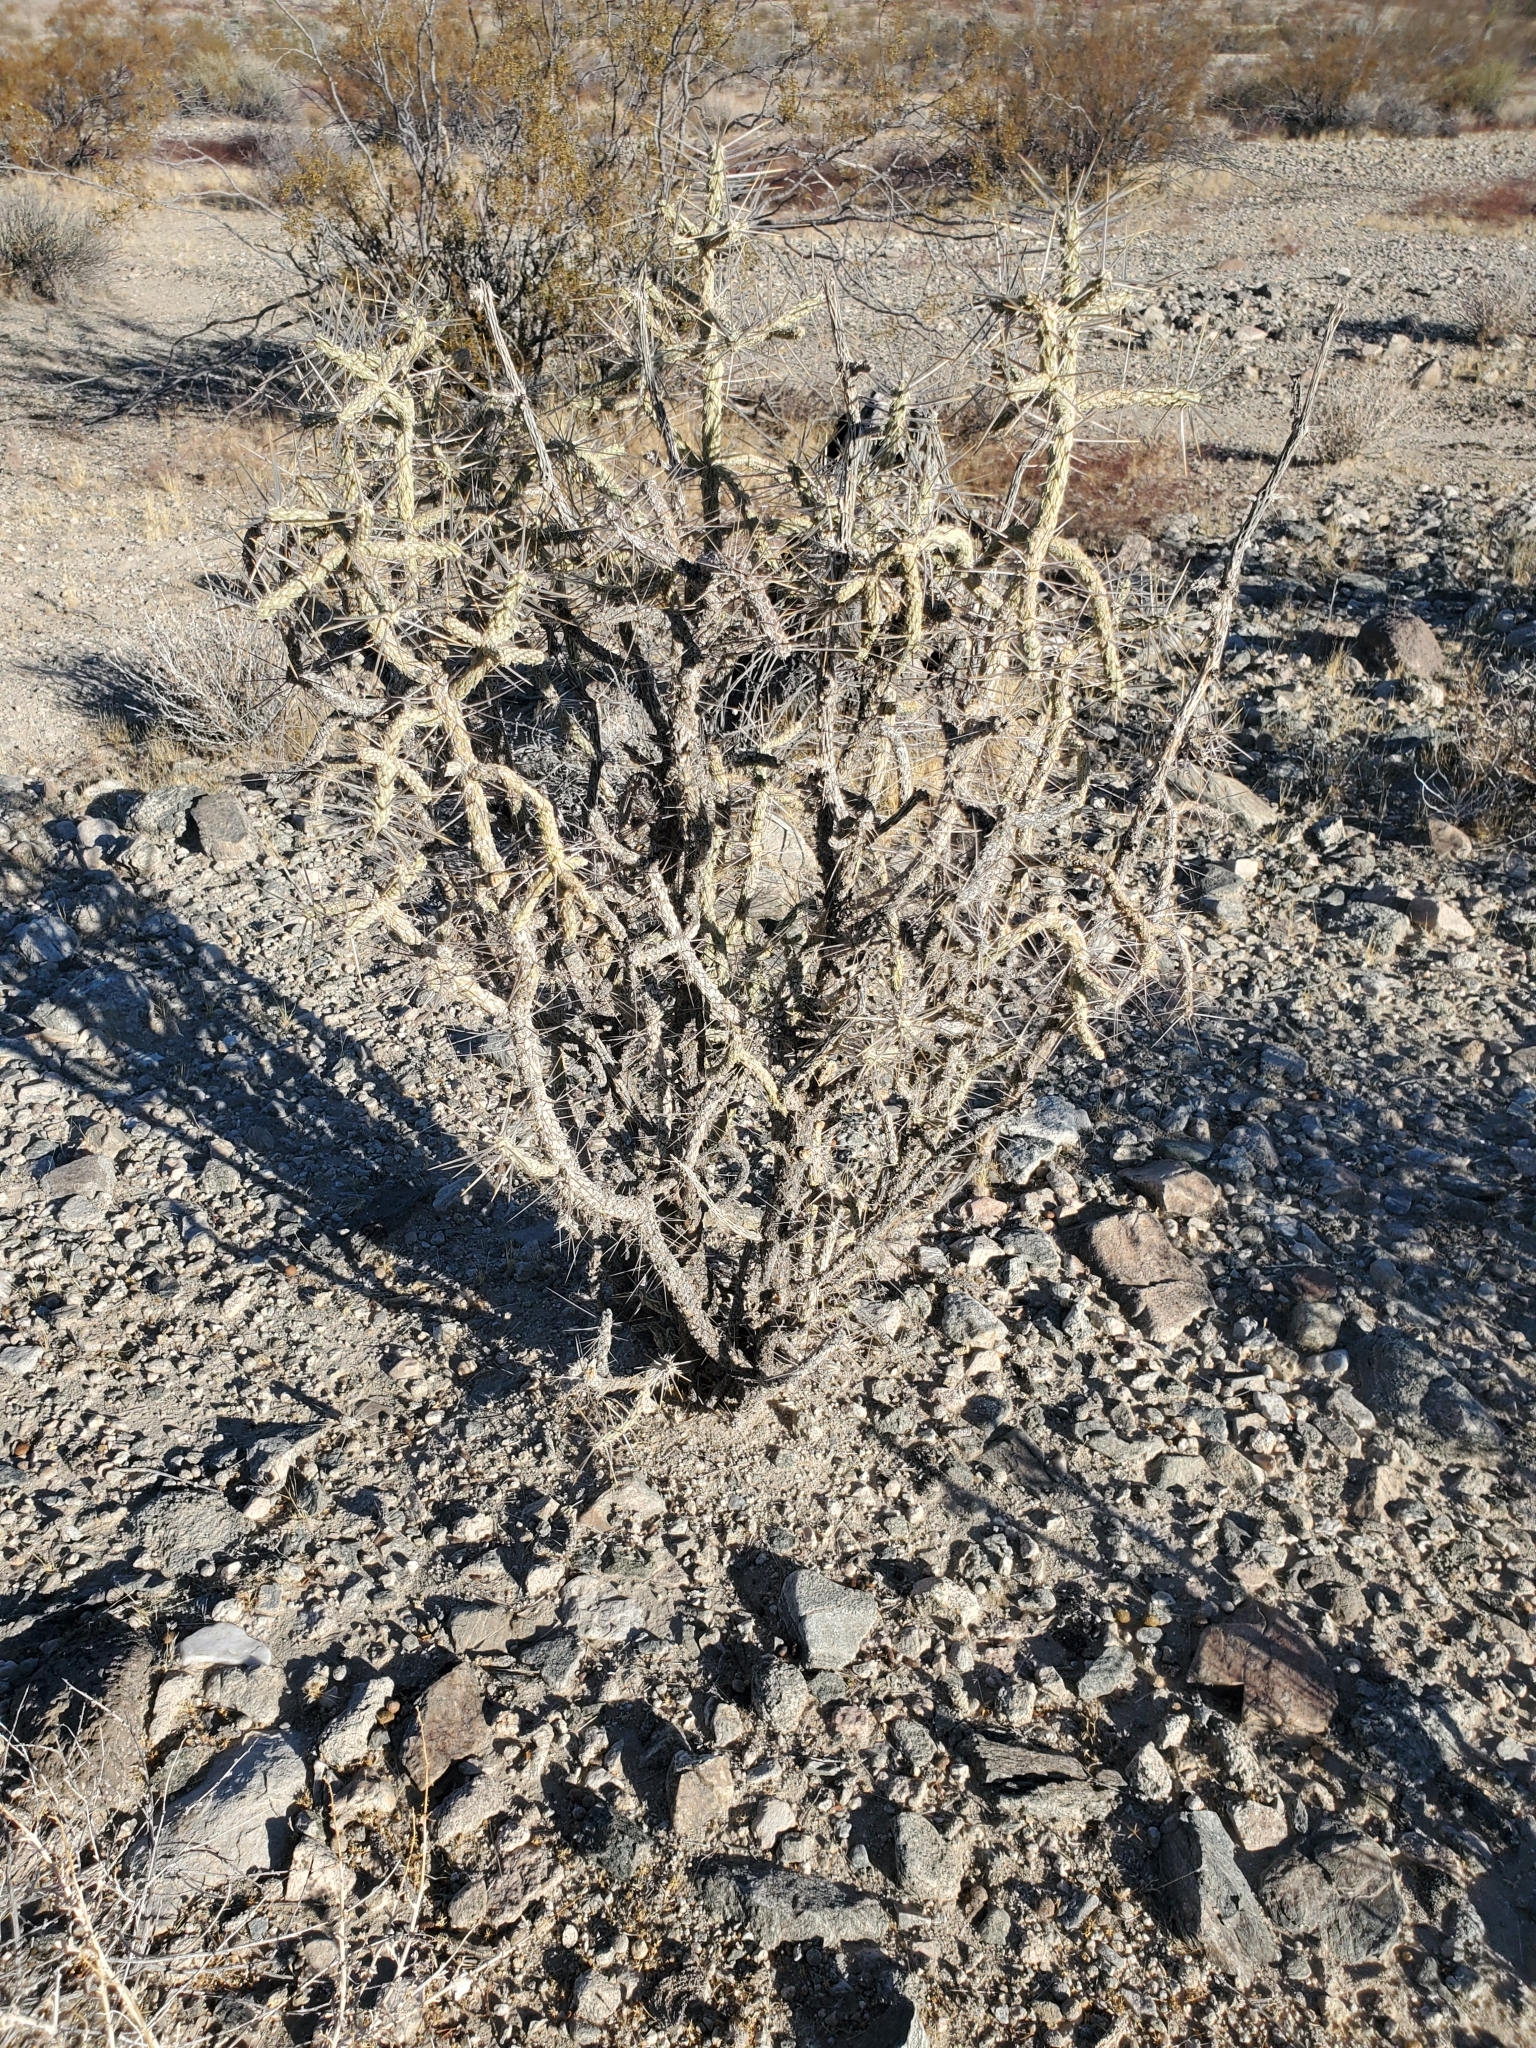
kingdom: Plantae
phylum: Tracheophyta
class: Magnoliopsida
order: Caryophyllales
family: Cactaceae
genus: Cylindropuntia
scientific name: Cylindropuntia ramosissima
